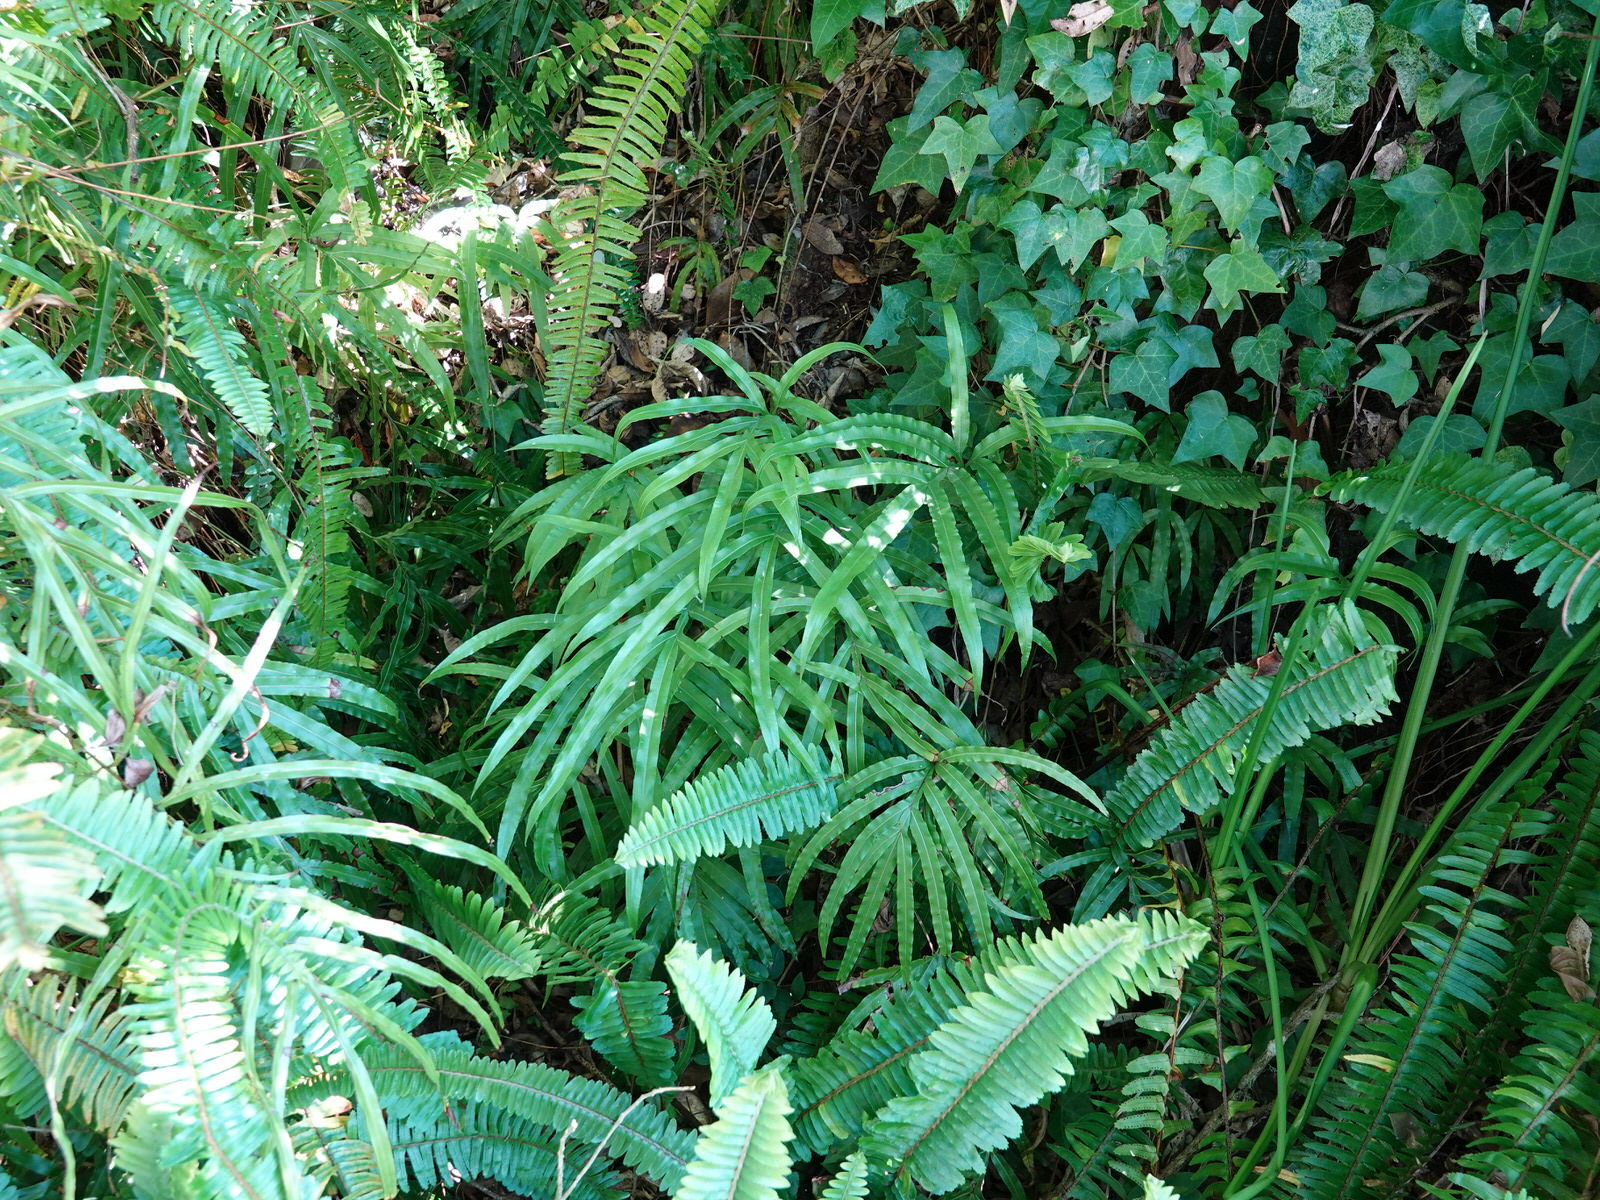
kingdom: Plantae
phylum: Tracheophyta
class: Polypodiopsida
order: Polypodiales
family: Pteridaceae
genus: Pteris
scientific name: Pteris cretica
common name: Ribbon fern
